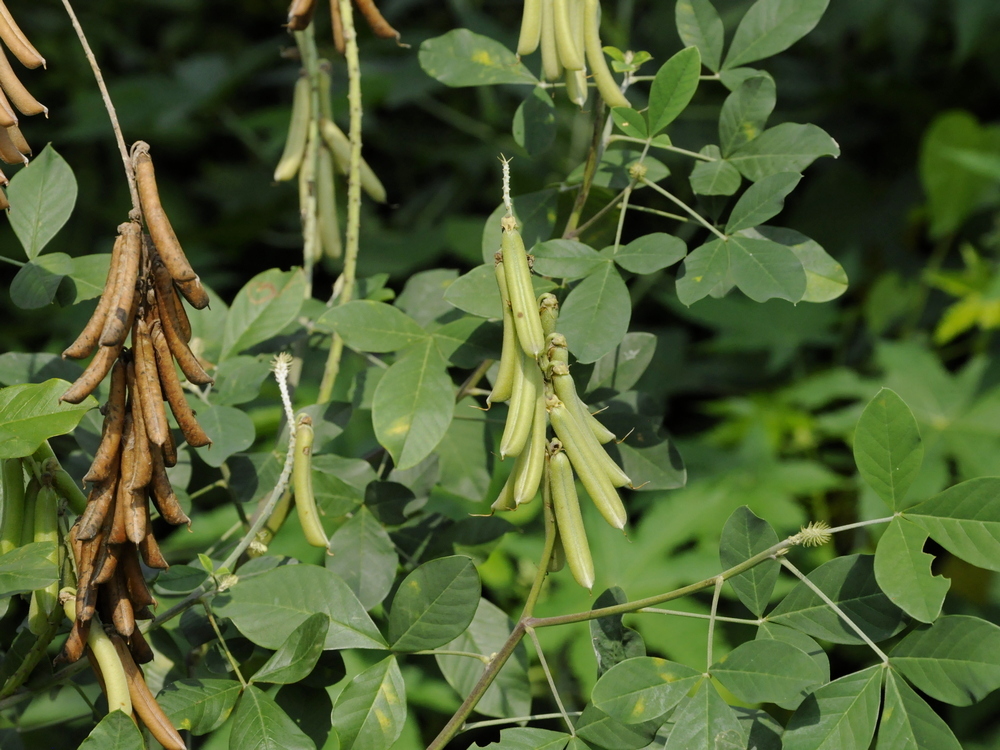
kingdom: Plantae
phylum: Tracheophyta
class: Magnoliopsida
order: Fabales
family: Fabaceae
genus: Crotalaria
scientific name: Crotalaria pallida
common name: Smooth rattlebox
